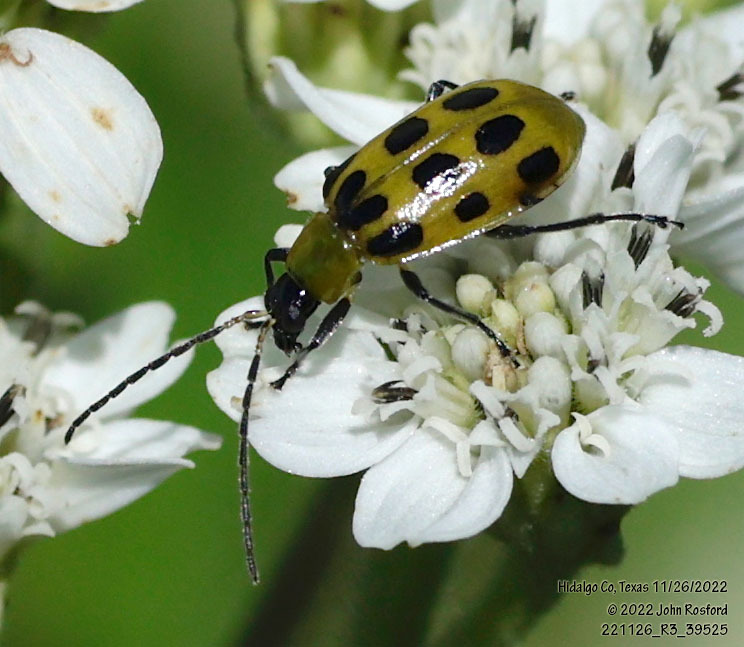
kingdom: Animalia
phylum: Arthropoda
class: Insecta
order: Coleoptera
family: Chrysomelidae
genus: Diabrotica
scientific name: Diabrotica undecimpunctata
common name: Spotted cucumber beetle
